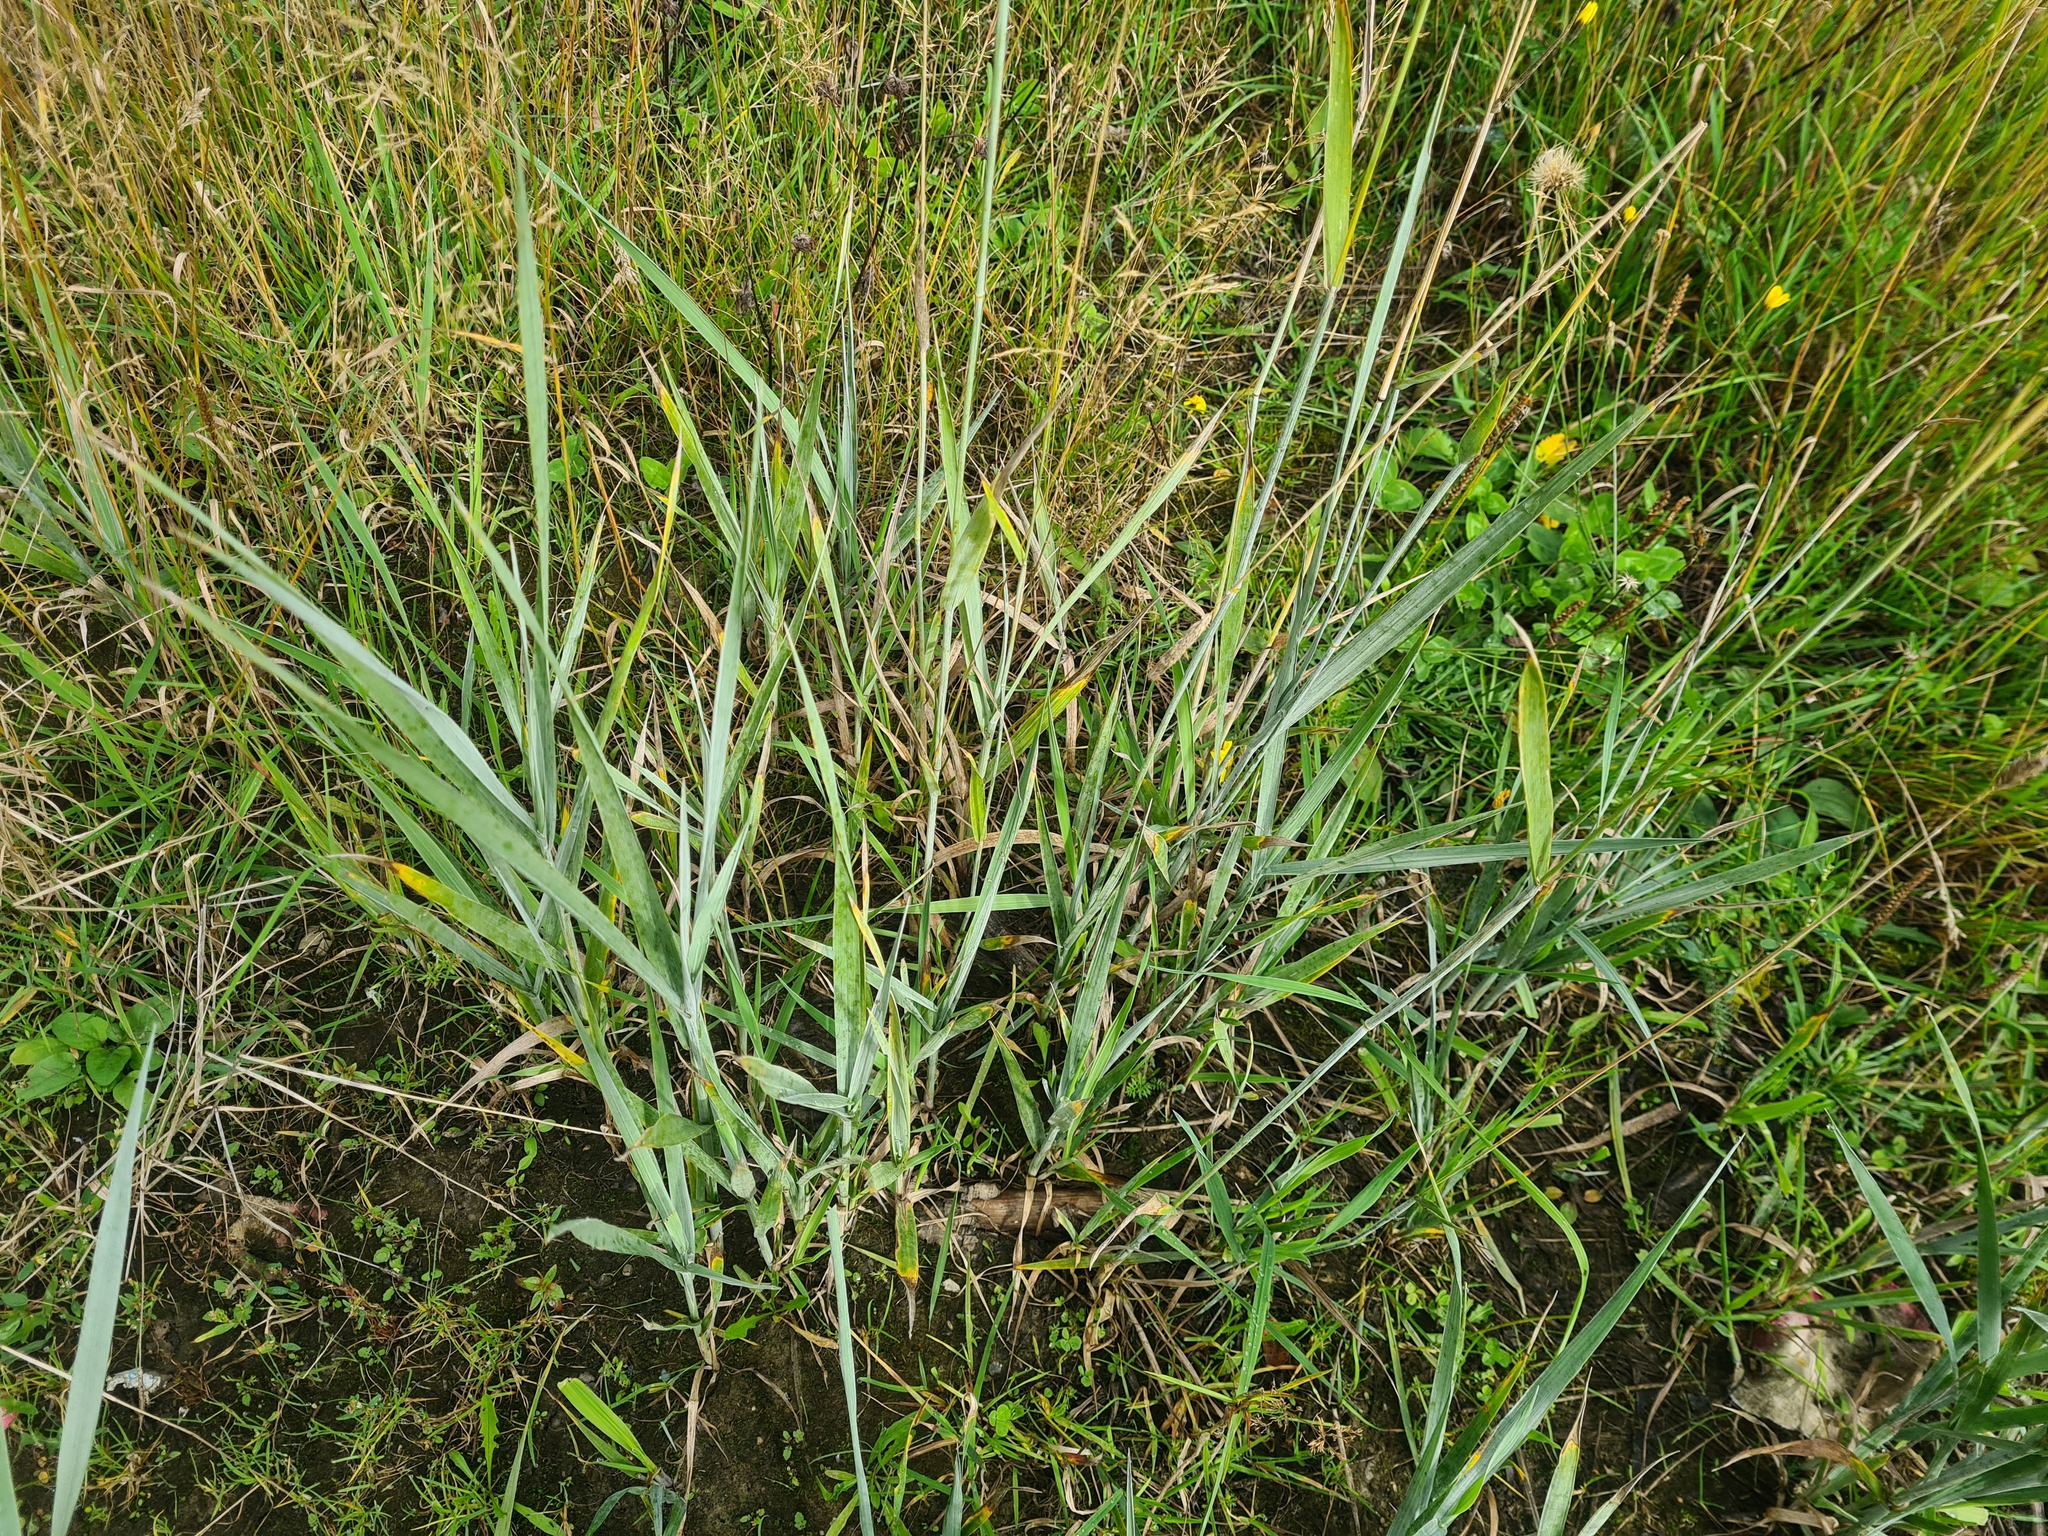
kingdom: Plantae
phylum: Tracheophyta
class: Liliopsida
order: Poales
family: Poaceae
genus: Phragmites
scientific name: Phragmites australis
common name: Common reed
